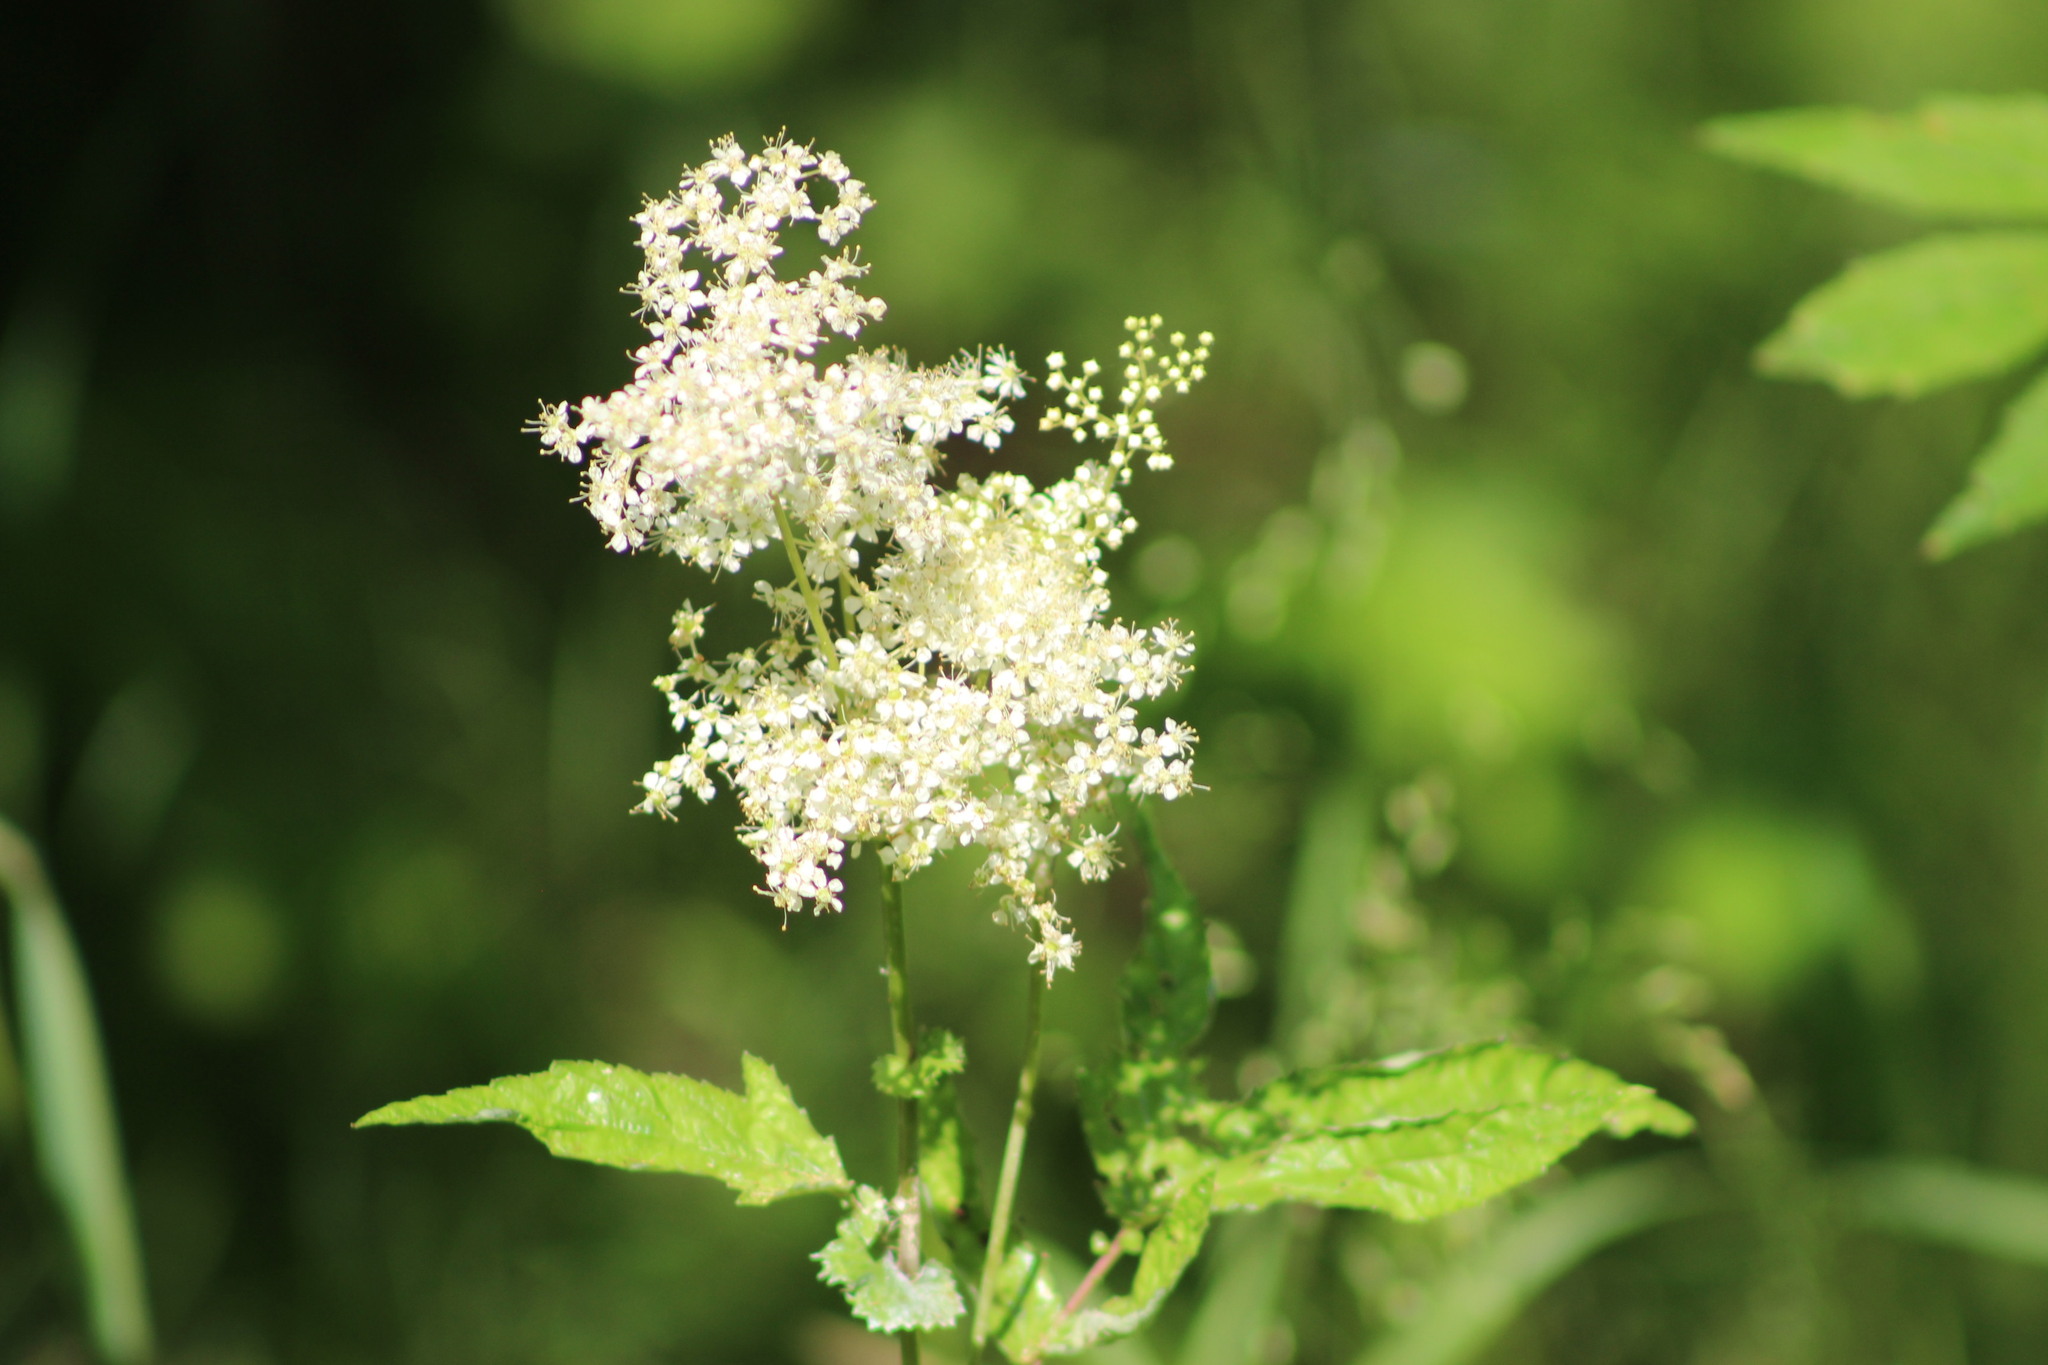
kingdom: Plantae
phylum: Tracheophyta
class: Magnoliopsida
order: Rosales
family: Rosaceae
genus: Filipendula
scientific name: Filipendula ulmaria
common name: Meadowsweet
